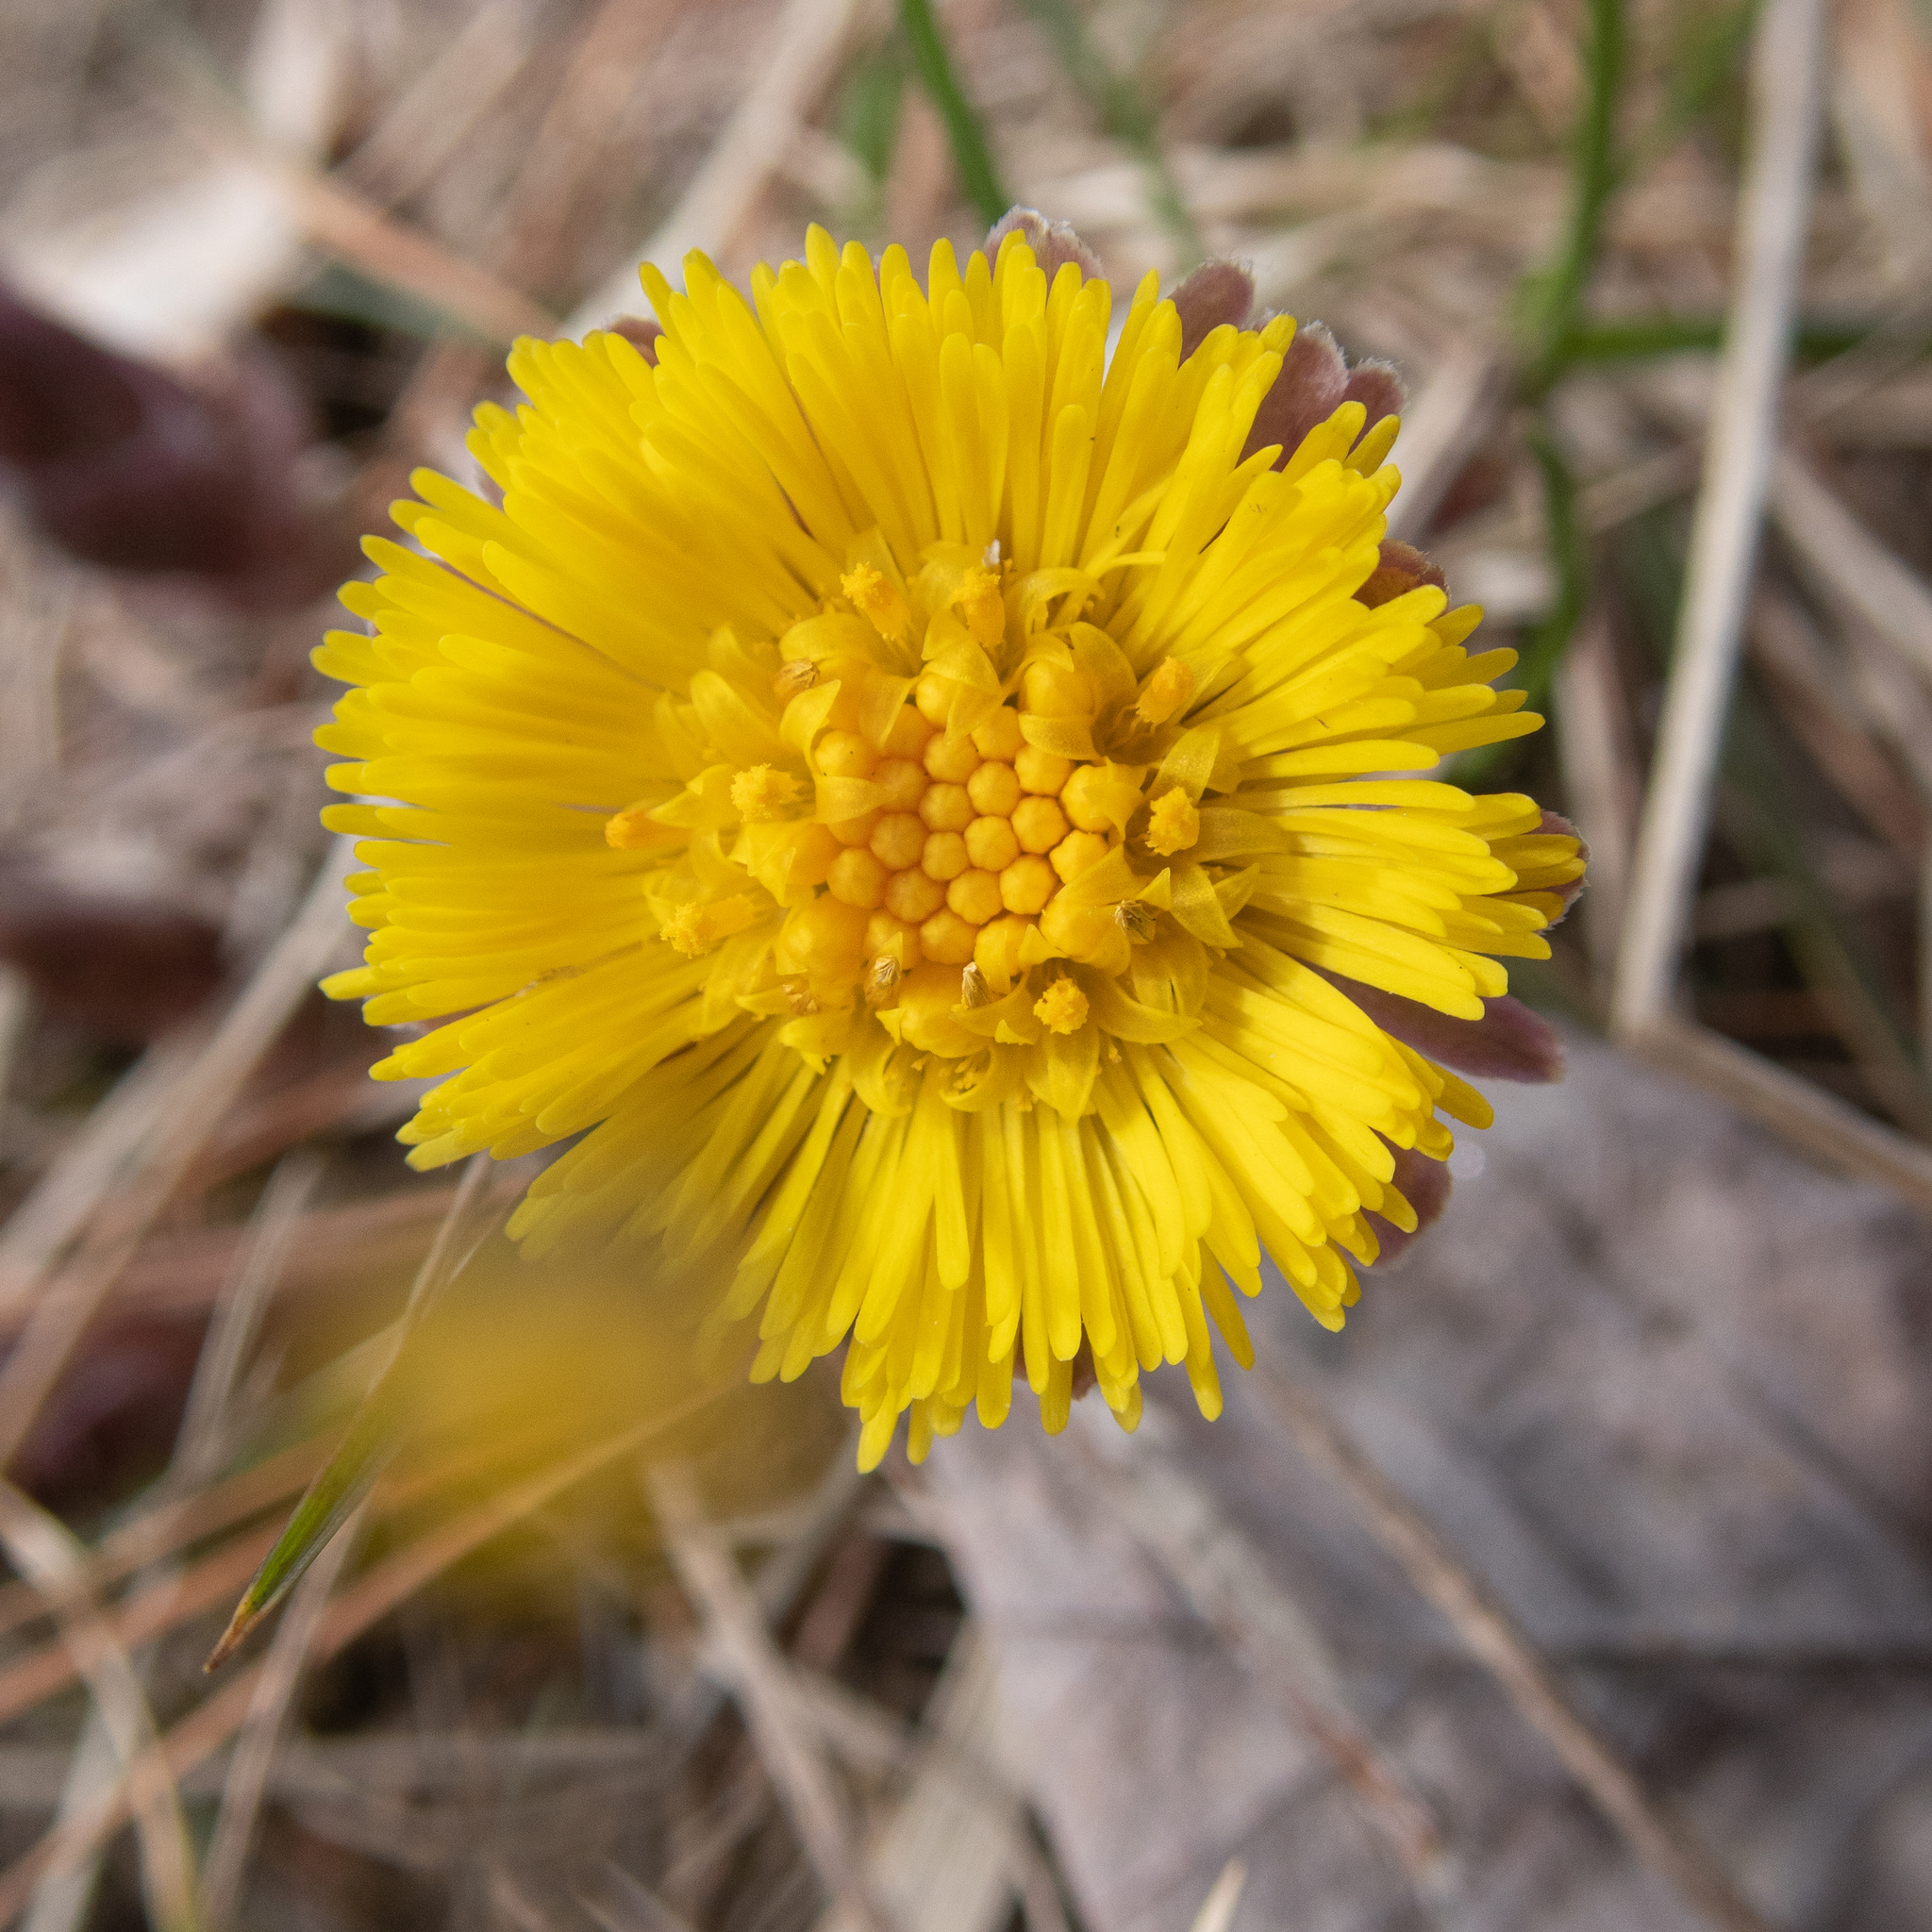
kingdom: Plantae
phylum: Tracheophyta
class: Magnoliopsida
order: Asterales
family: Asteraceae
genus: Tussilago
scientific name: Tussilago farfara
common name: Coltsfoot
